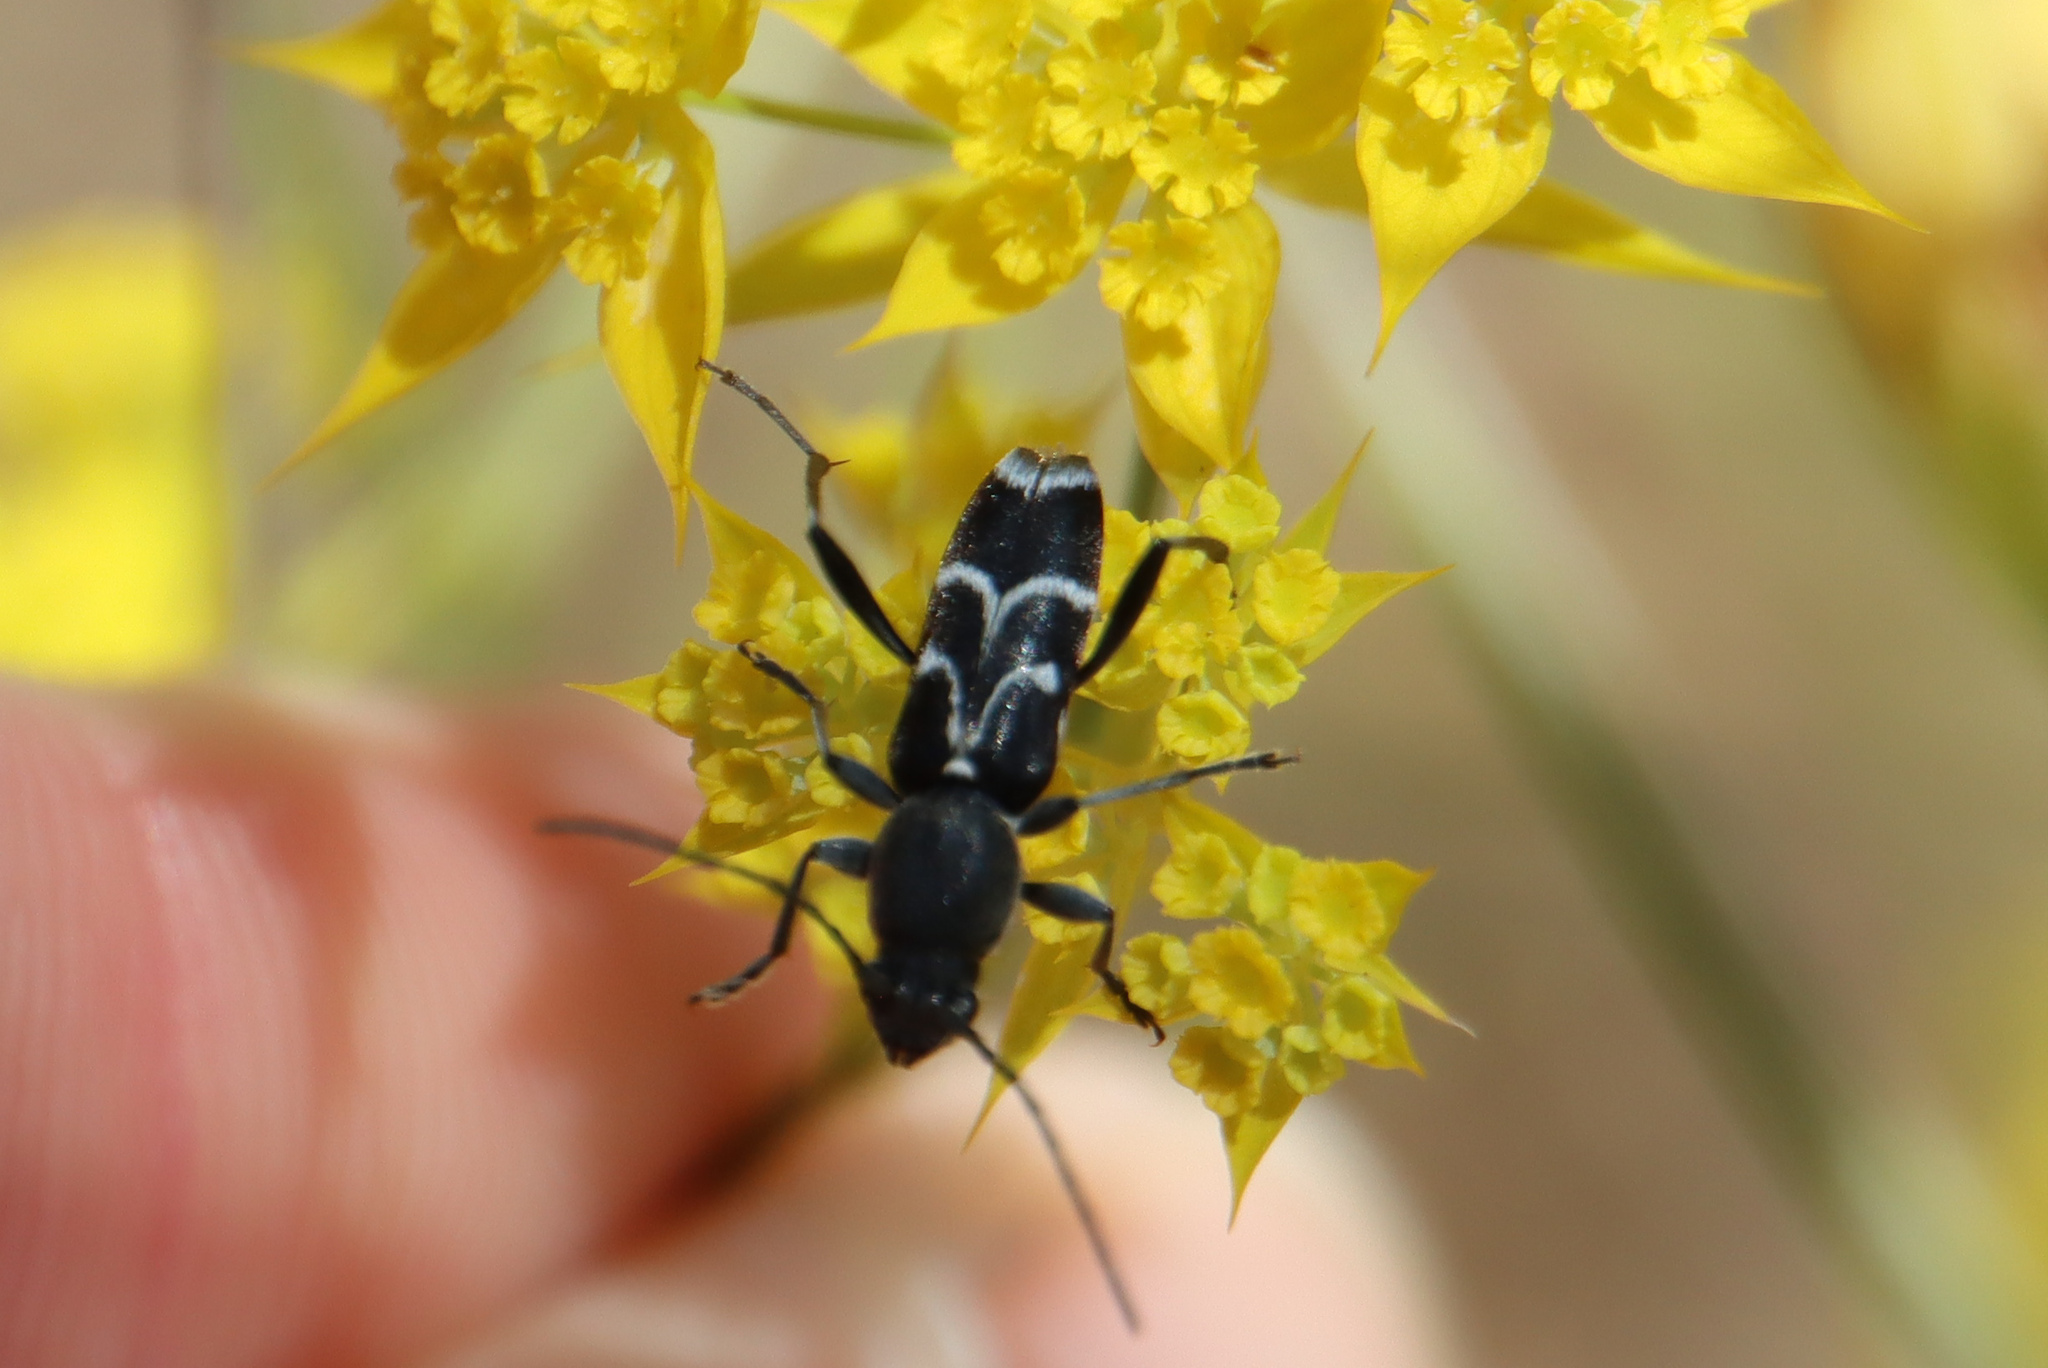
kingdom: Animalia
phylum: Arthropoda
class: Insecta
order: Coleoptera
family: Cerambycidae
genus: Chlorophorus
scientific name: Chlorophorus sartor
